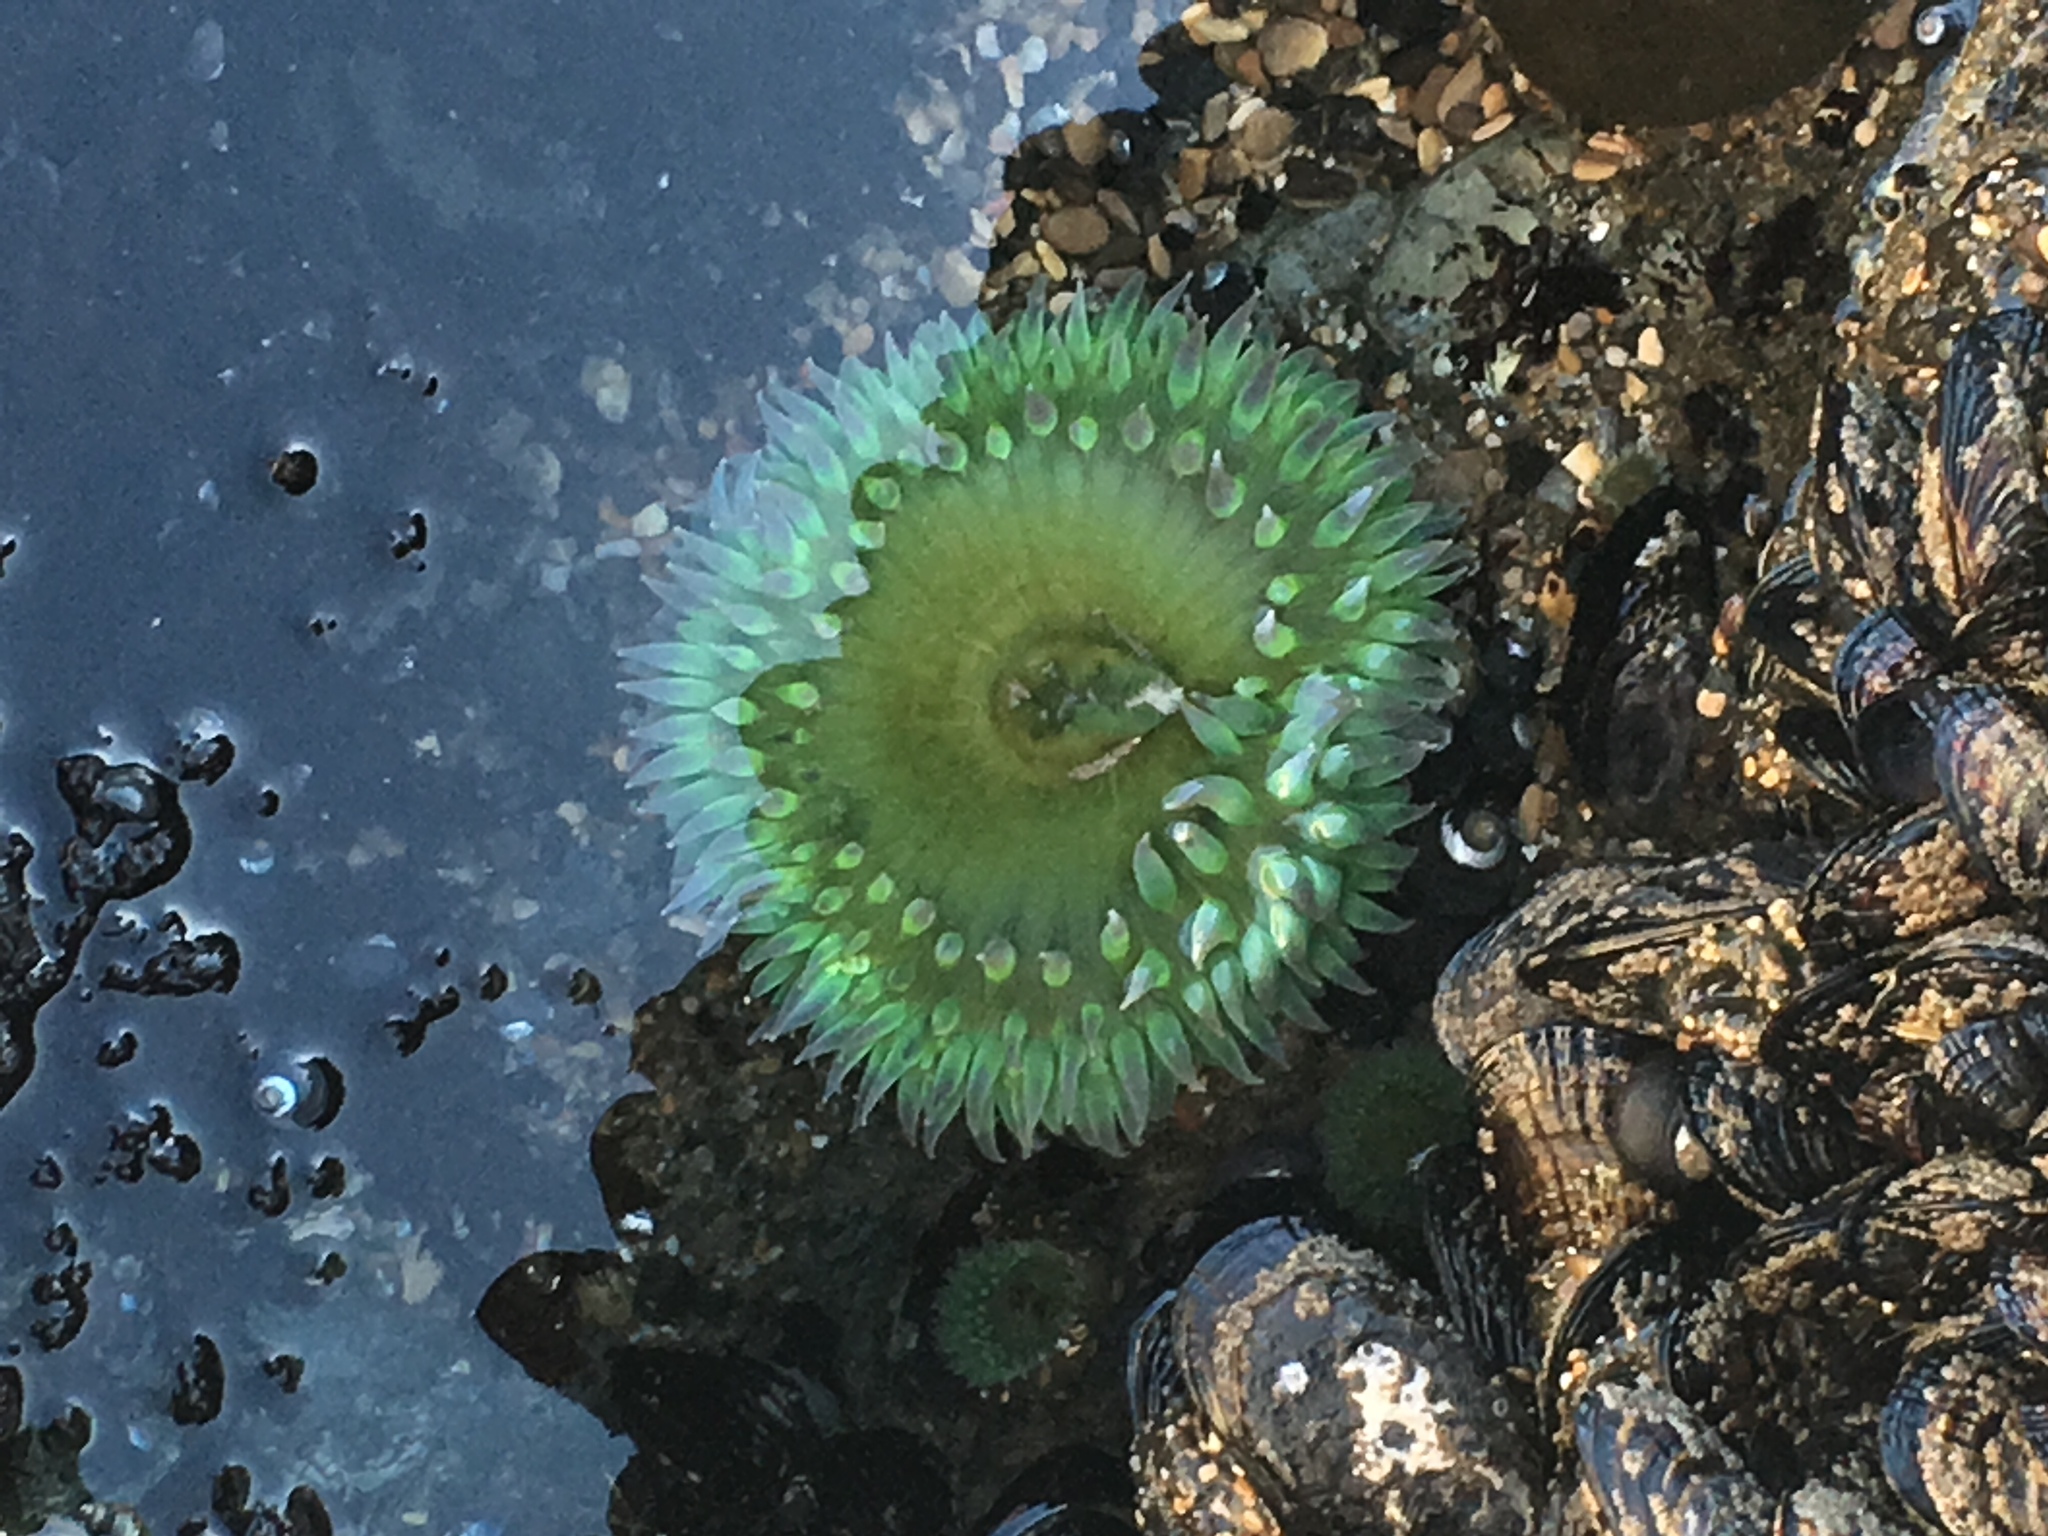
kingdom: Animalia
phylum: Cnidaria
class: Anthozoa
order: Actiniaria
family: Actiniidae
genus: Anthopleura
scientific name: Anthopleura xanthogrammica
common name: Giant green anemone
